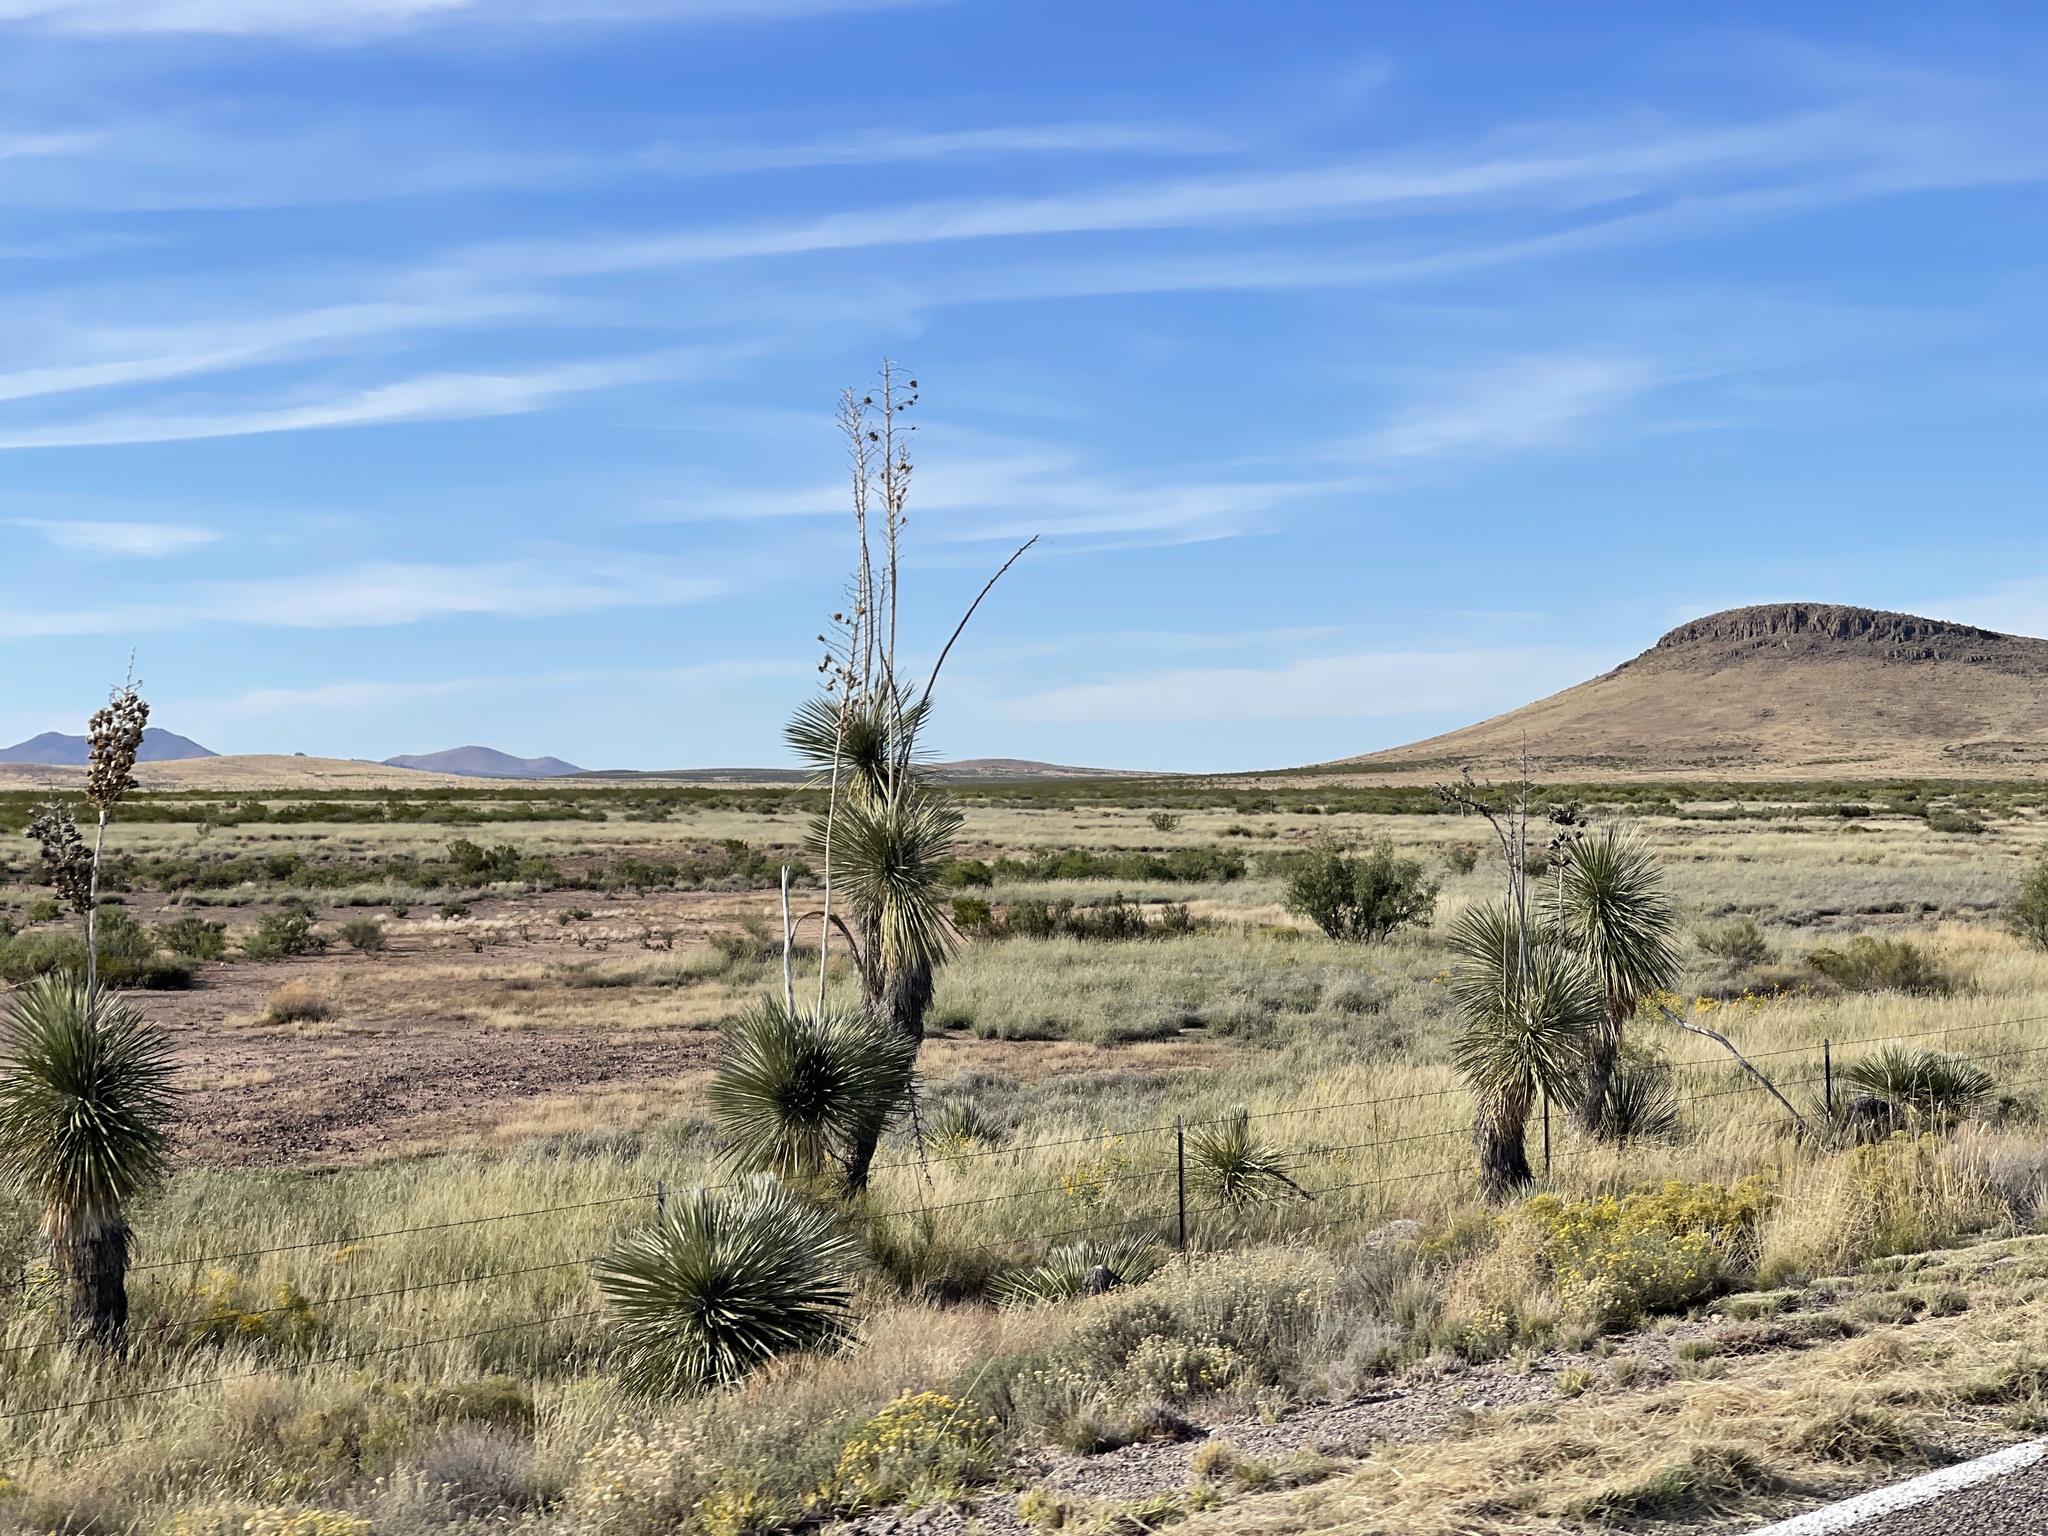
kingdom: Plantae
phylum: Tracheophyta
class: Liliopsida
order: Asparagales
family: Asparagaceae
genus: Yucca
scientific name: Yucca elata
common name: Palmella
